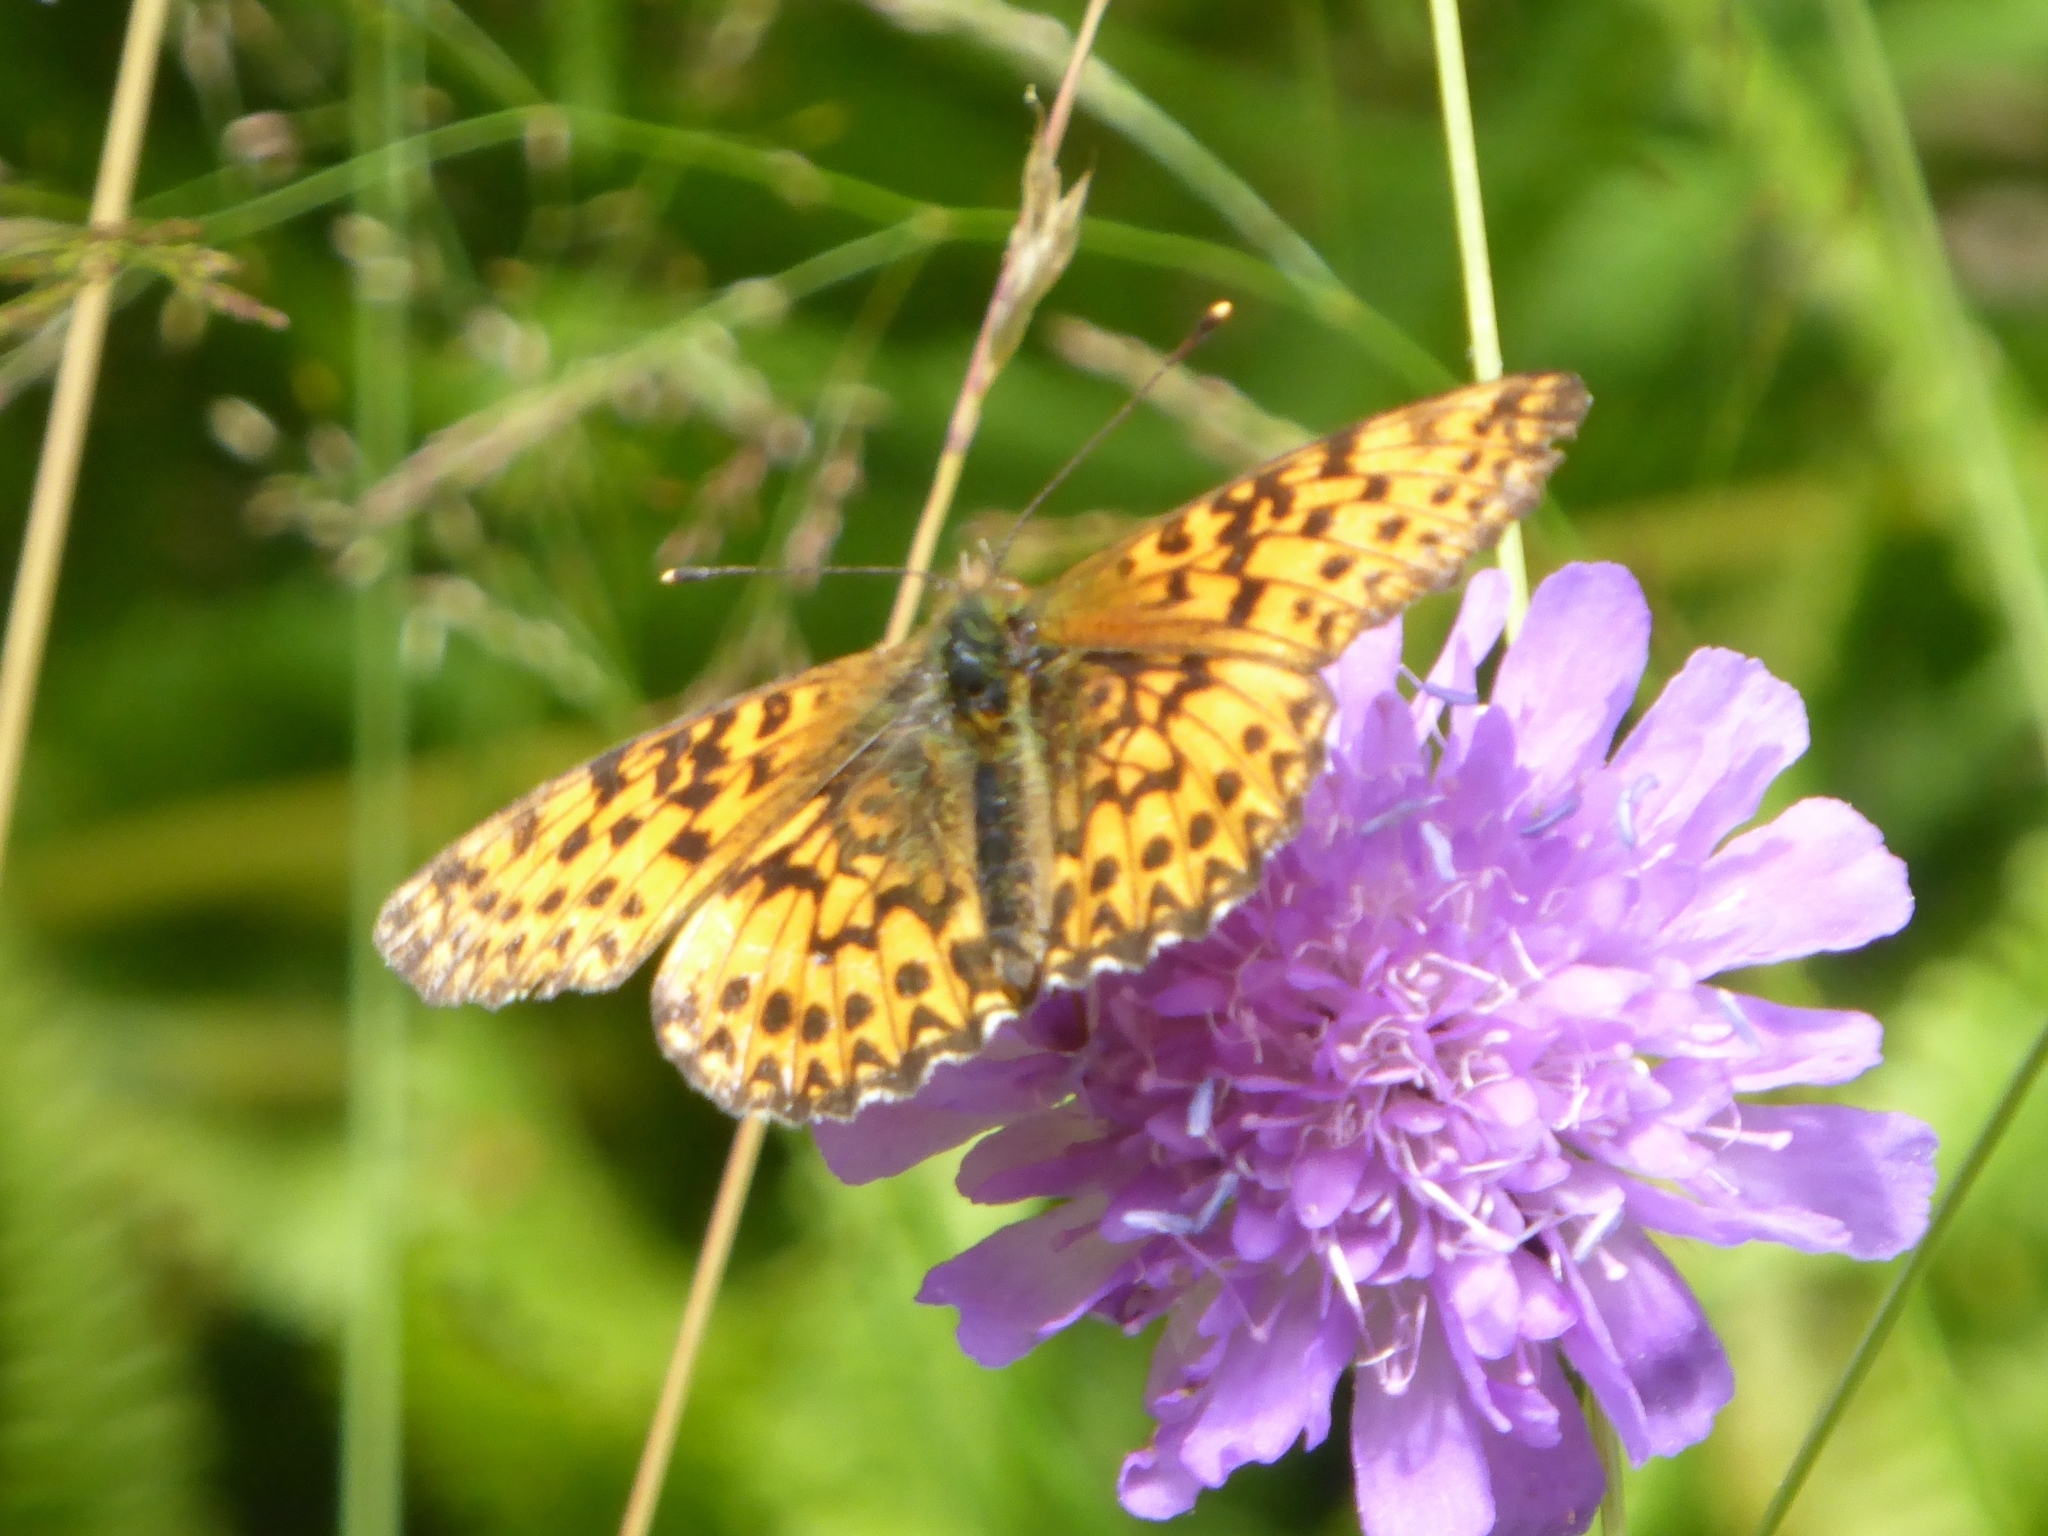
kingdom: Animalia
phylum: Arthropoda
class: Insecta
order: Lepidoptera
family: Nymphalidae
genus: Boloria
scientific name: Boloria titania
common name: Titania's fritillary
